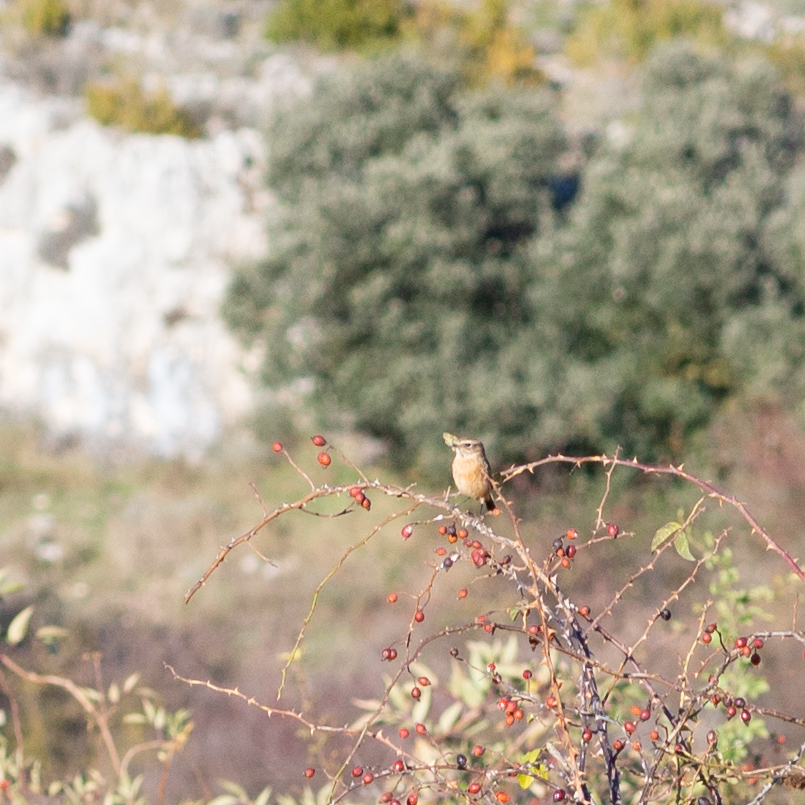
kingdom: Animalia
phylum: Chordata
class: Aves
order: Passeriformes
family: Muscicapidae
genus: Saxicola
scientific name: Saxicola rubetra
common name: Whinchat
